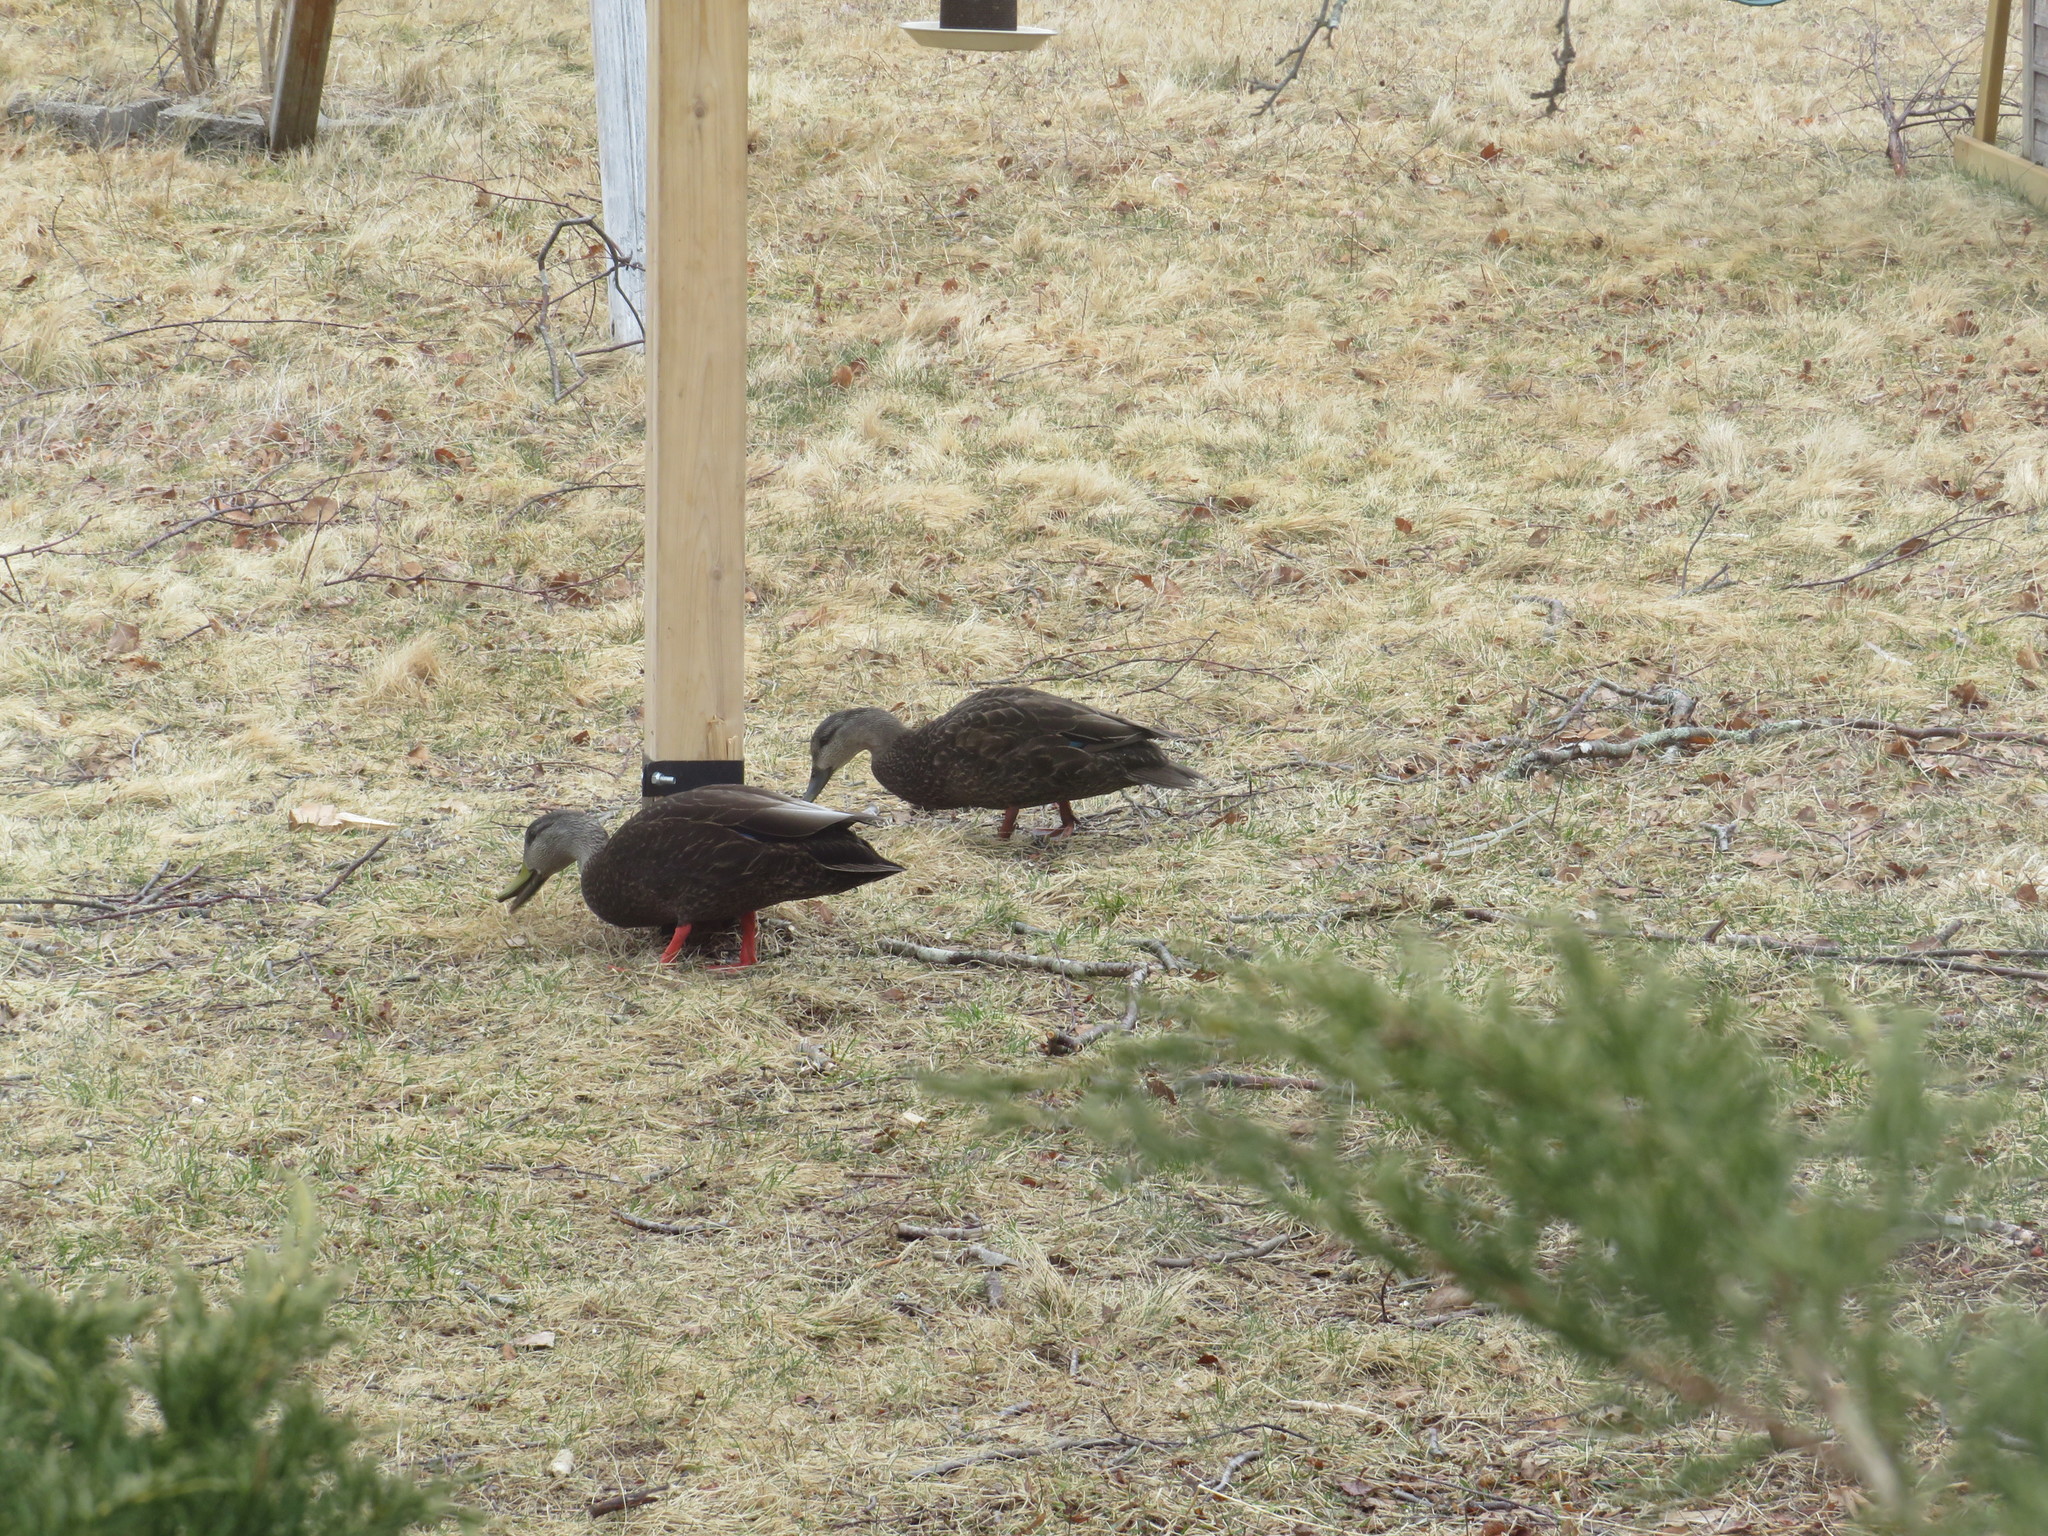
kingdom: Animalia
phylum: Chordata
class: Aves
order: Anseriformes
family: Anatidae
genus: Anas
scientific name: Anas rubripes
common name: American black duck
